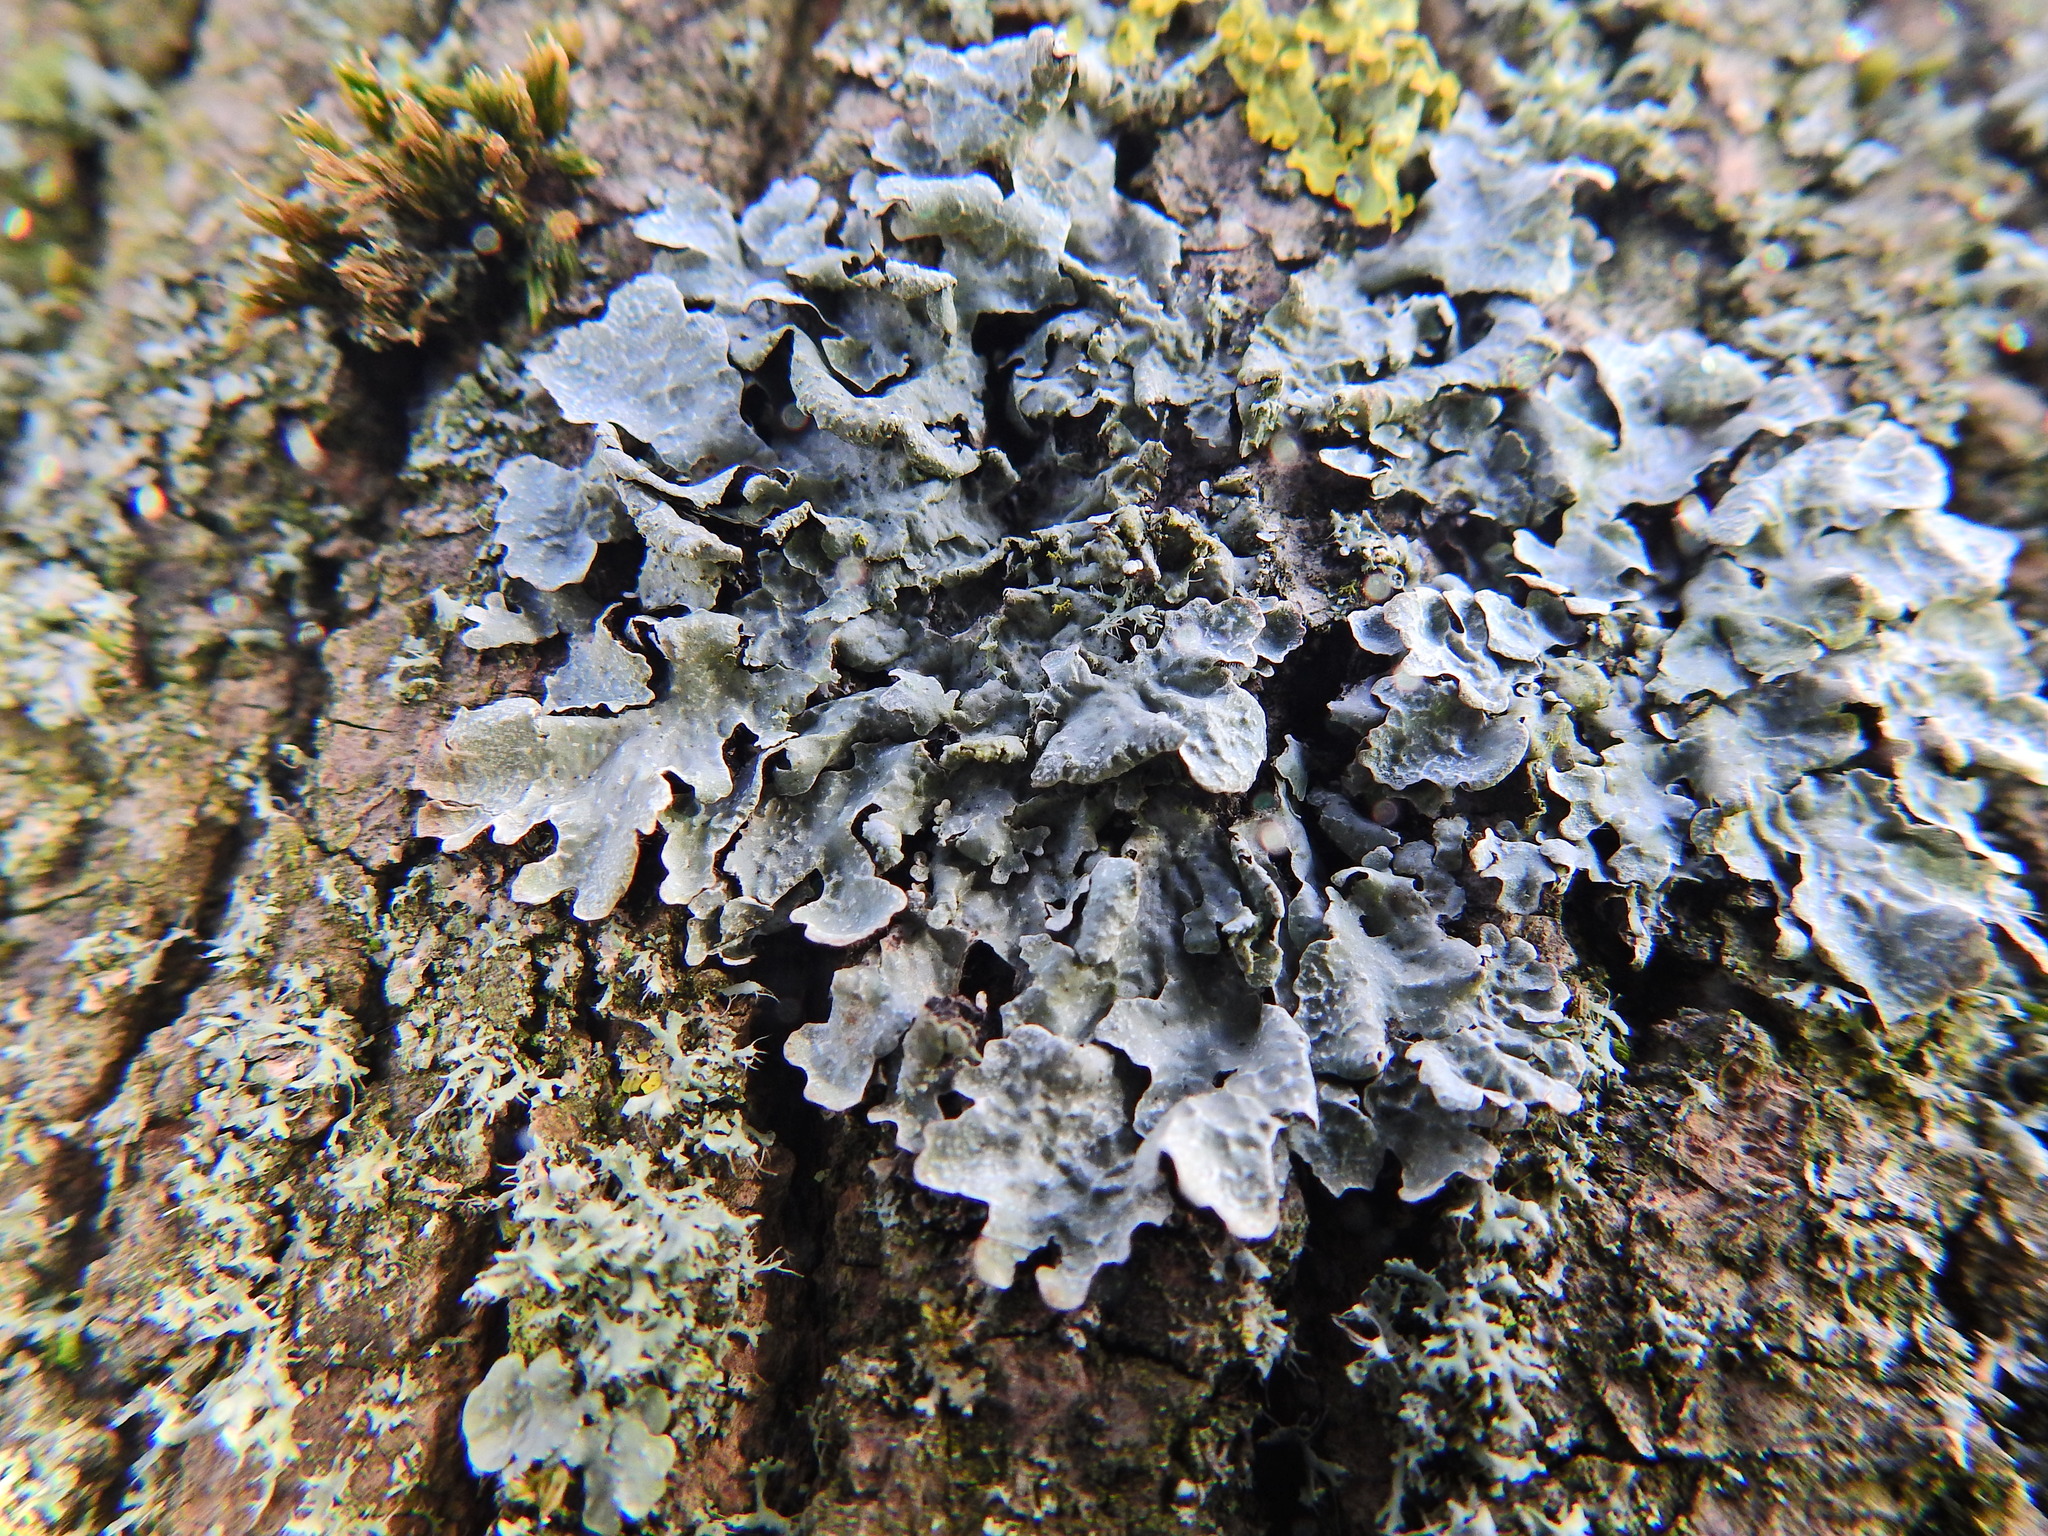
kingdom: Fungi
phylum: Ascomycota
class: Lecanoromycetes
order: Lecanorales
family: Parmeliaceae
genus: Parmelia
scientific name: Parmelia sulcata
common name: Netted shield lichen
